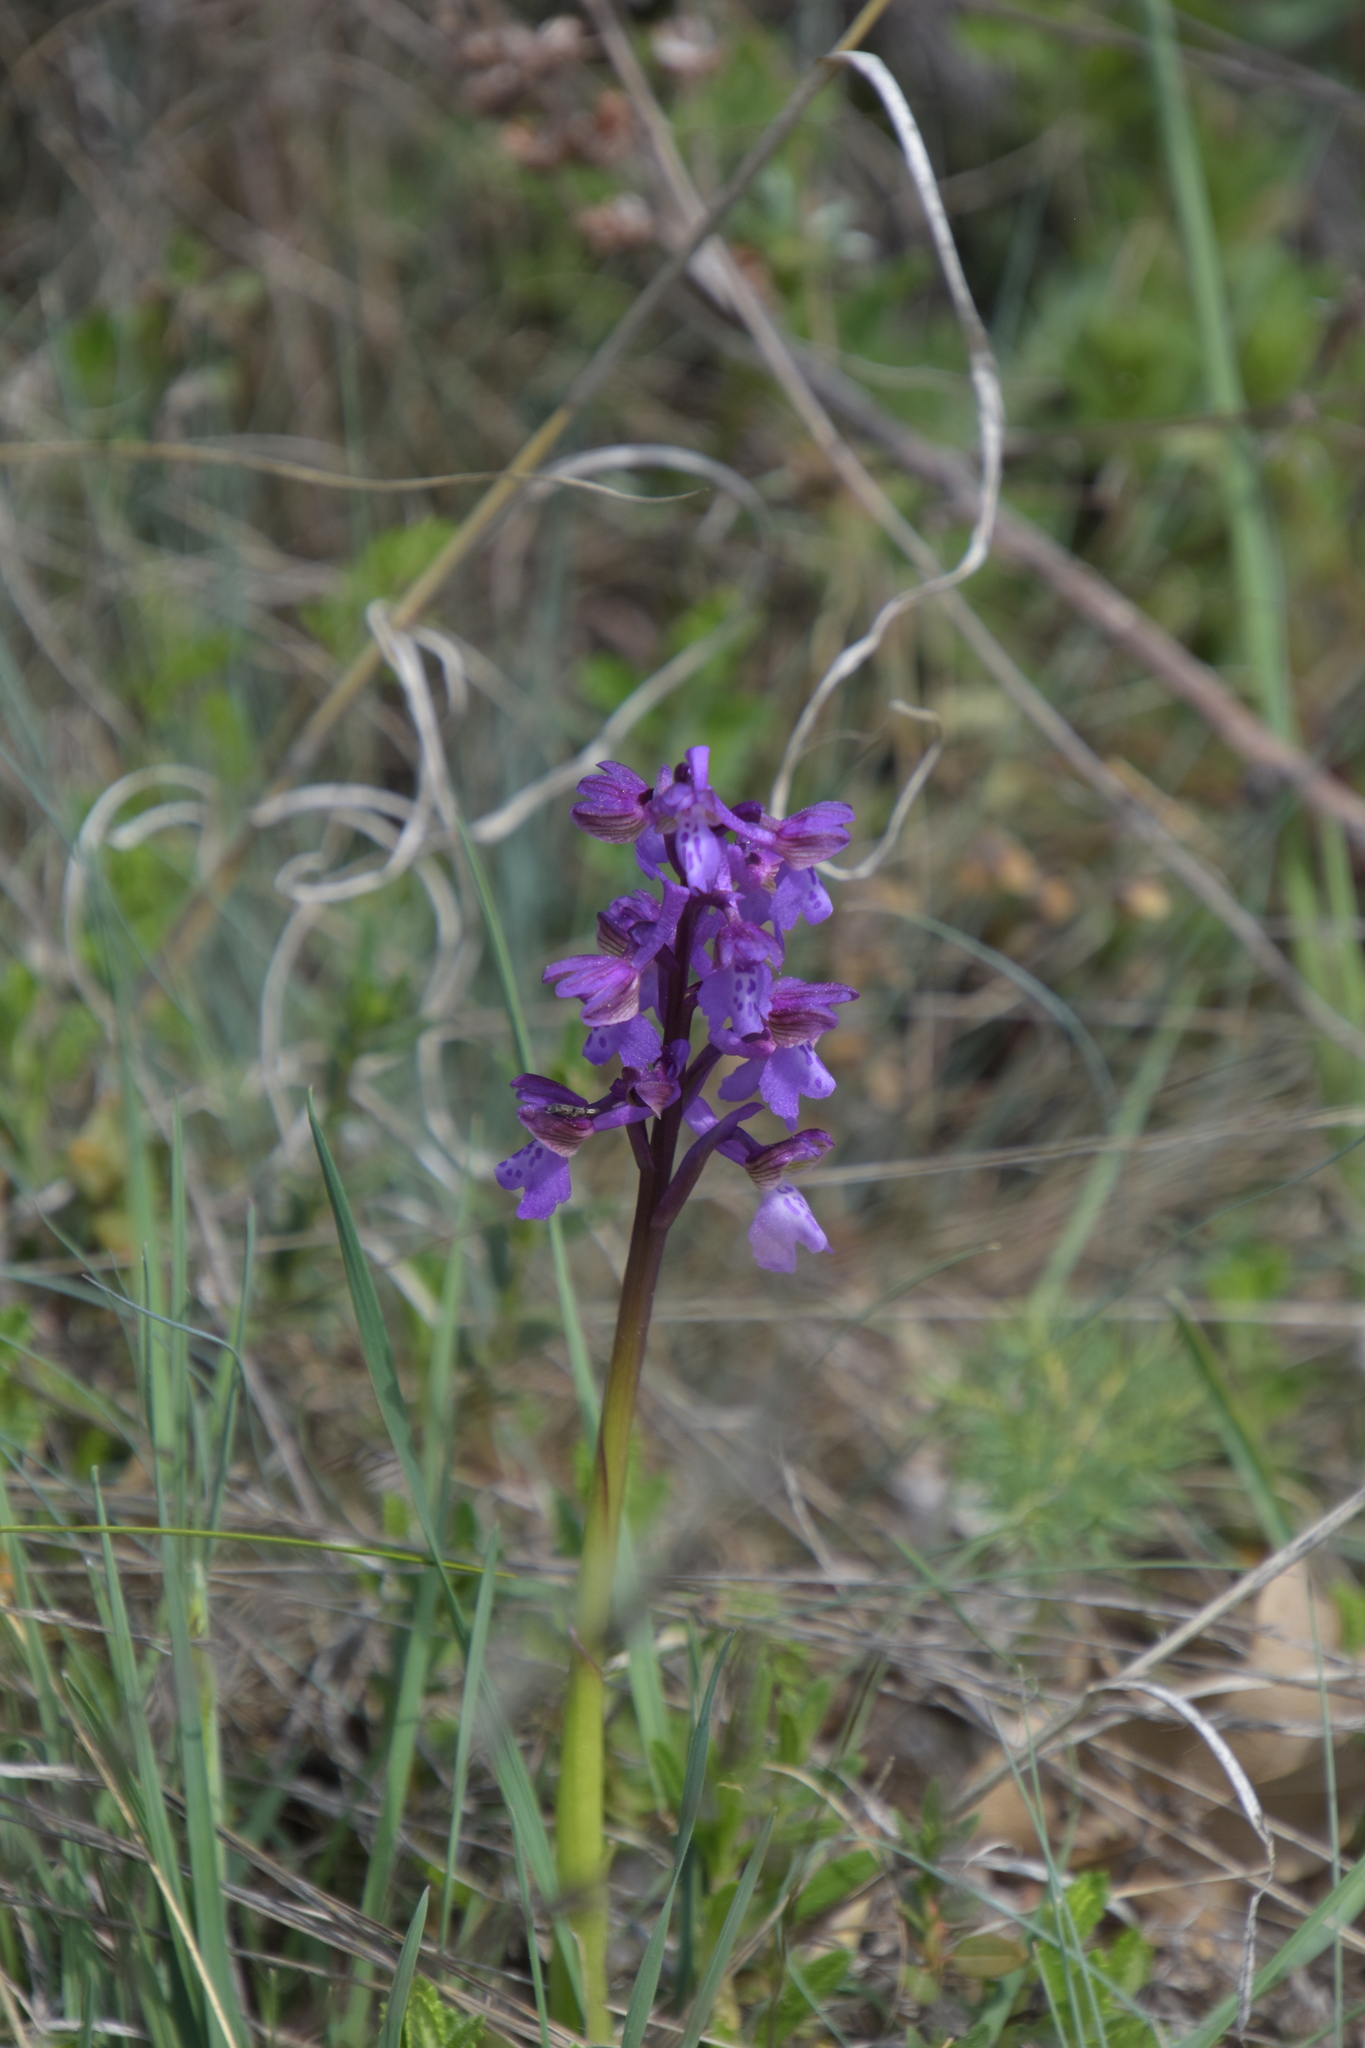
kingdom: Plantae
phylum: Tracheophyta
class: Liliopsida
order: Asparagales
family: Orchidaceae
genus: Anacamptis
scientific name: Anacamptis morio
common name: Green-winged orchid
